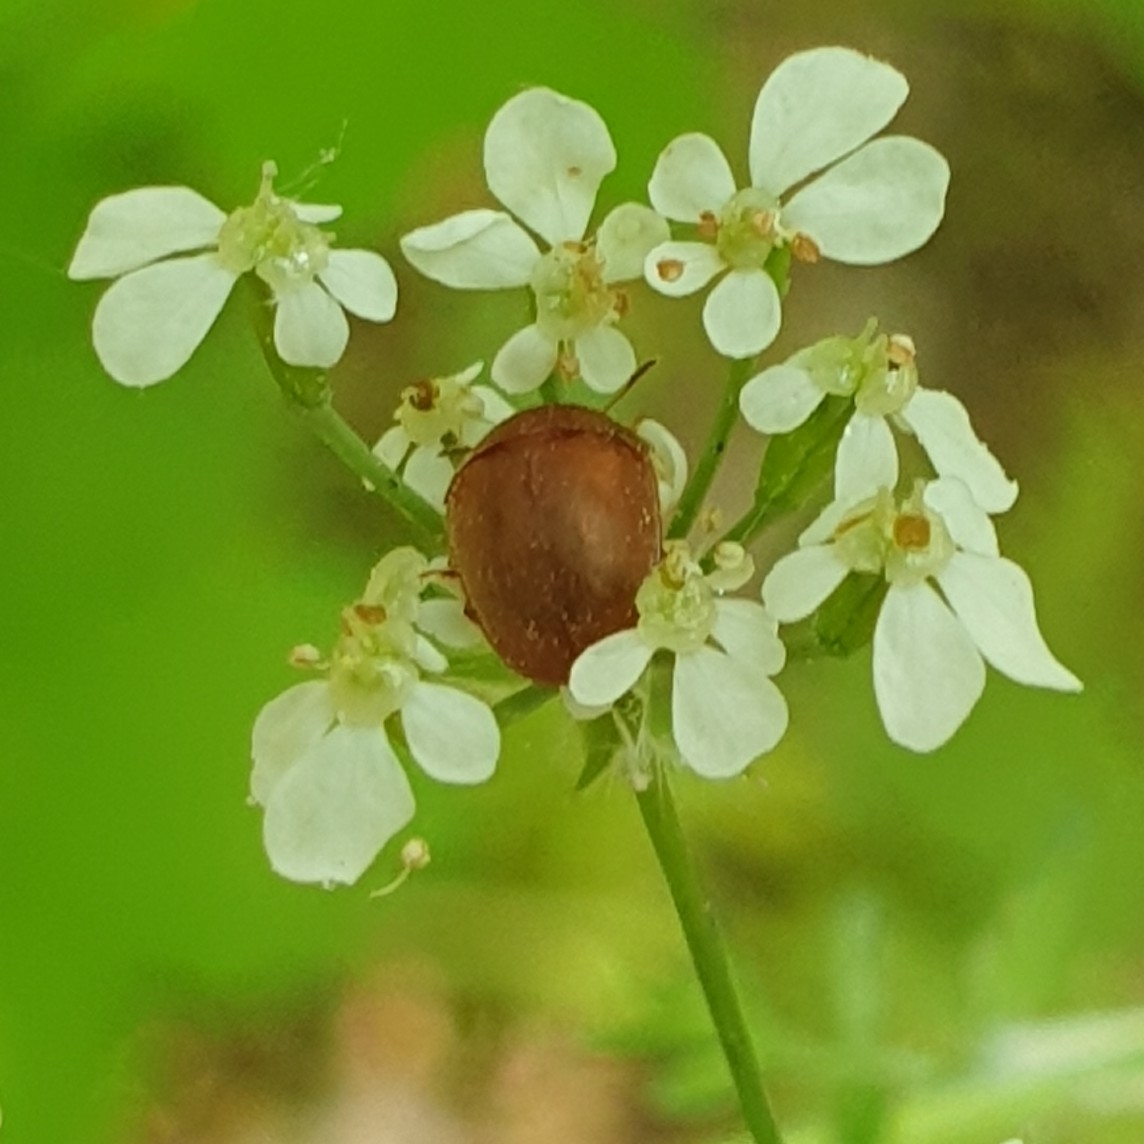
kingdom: Animalia
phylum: Arthropoda
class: Insecta
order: Coleoptera
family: Nitidulidae
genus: Cychramus
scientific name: Cychramus luteus
